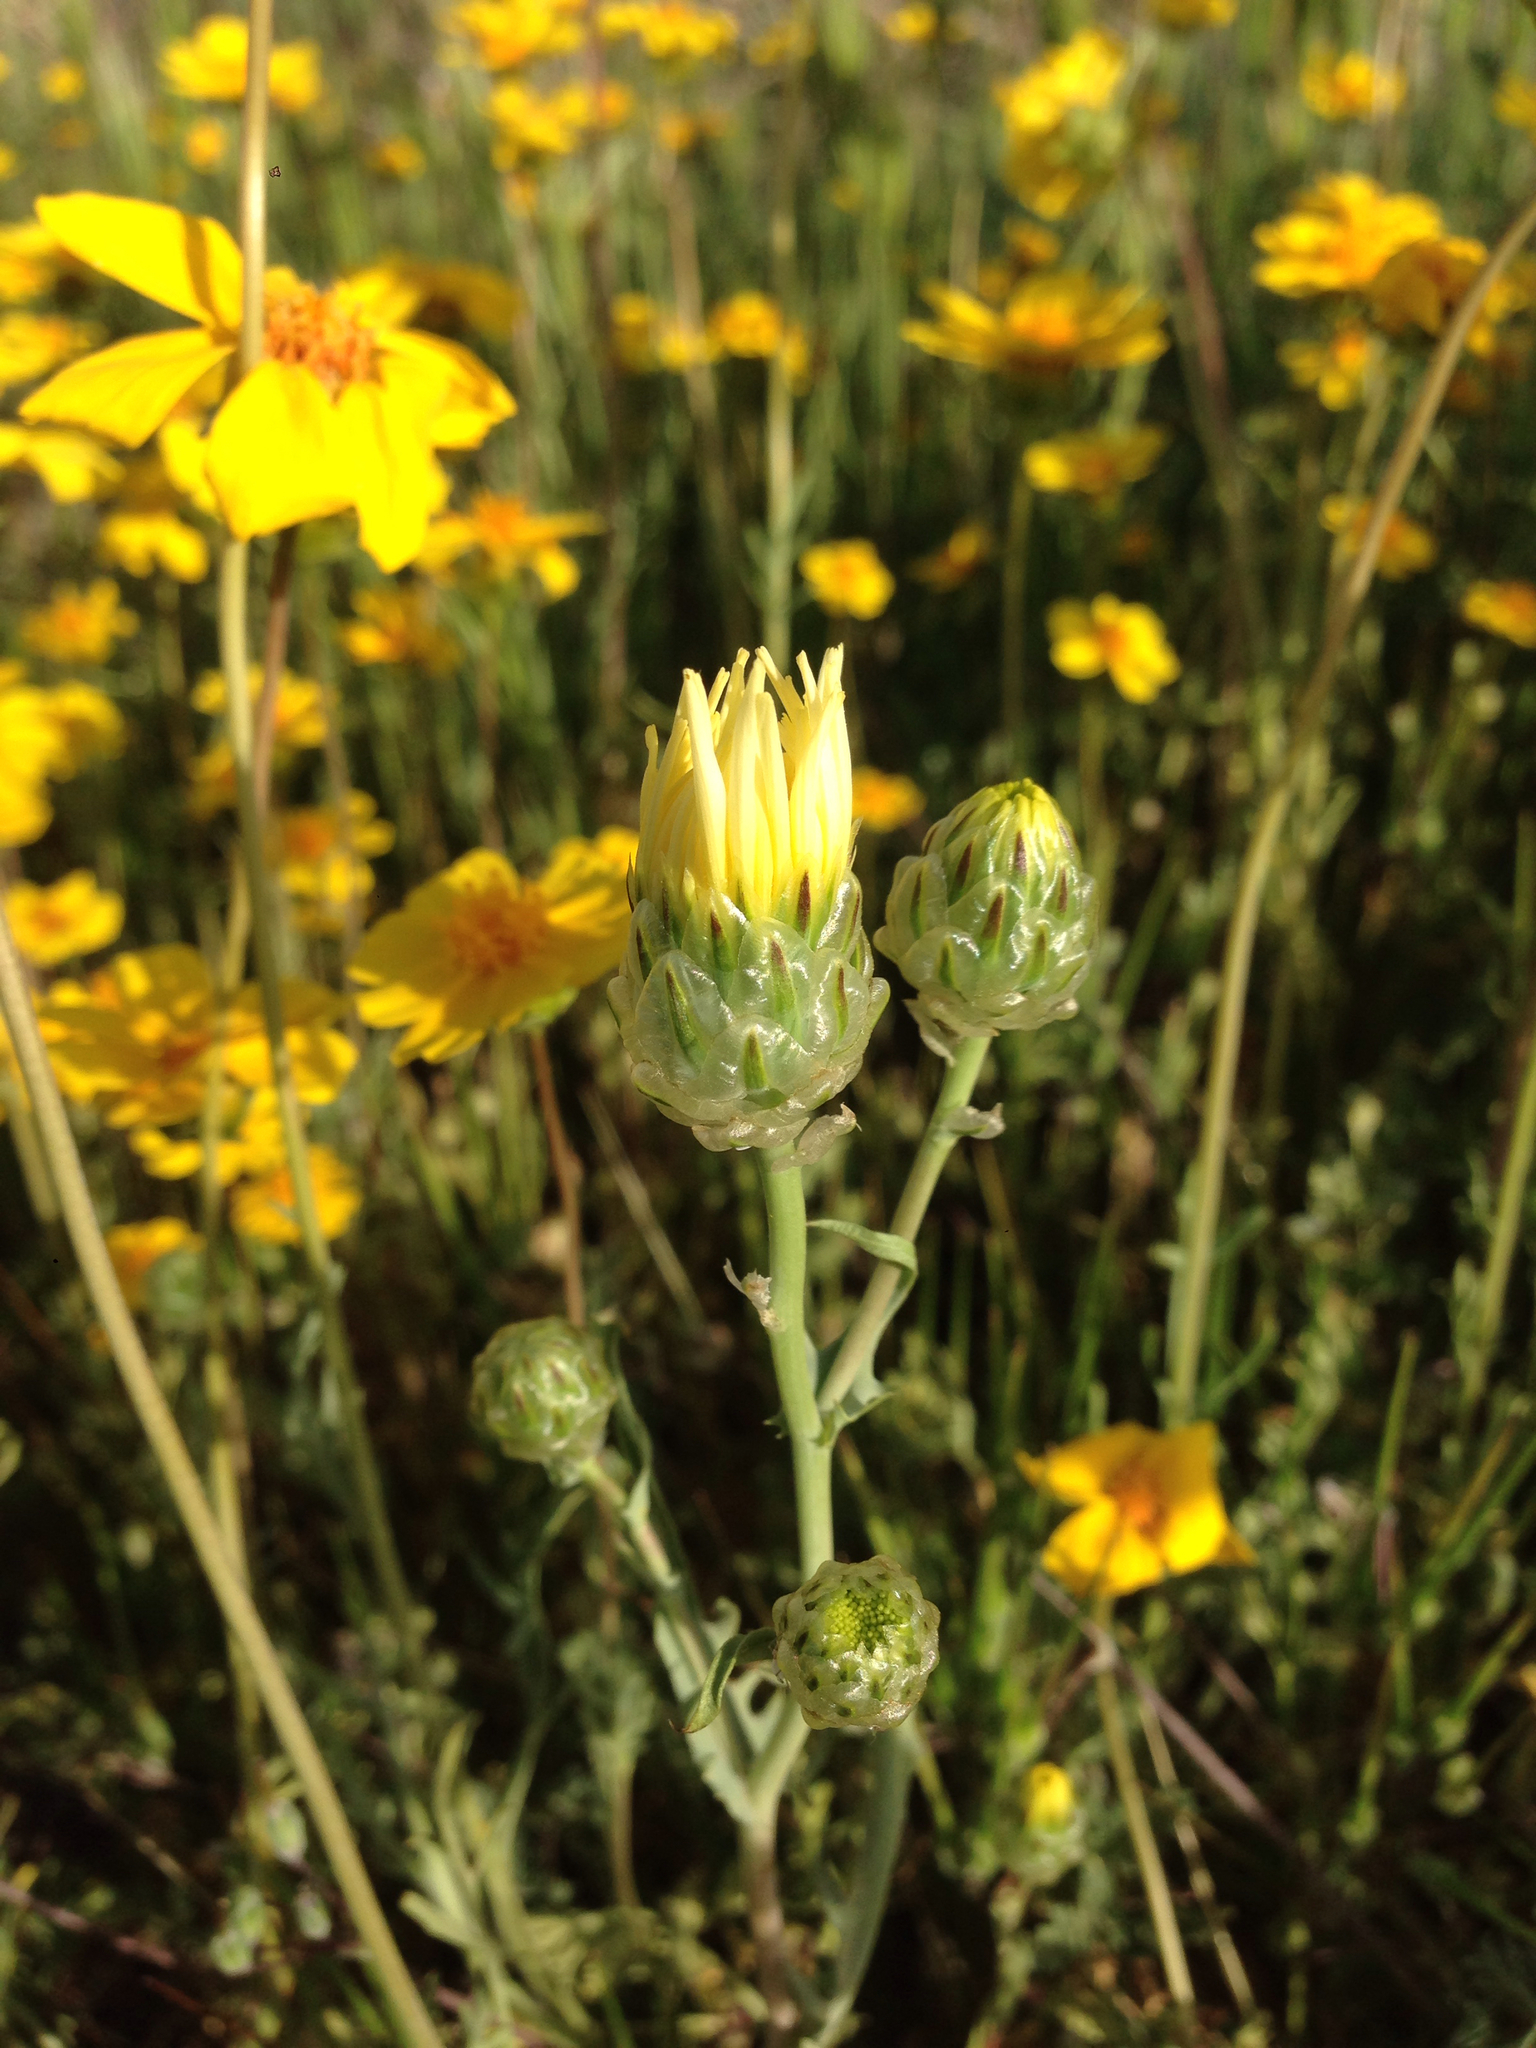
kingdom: Plantae
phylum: Tracheophyta
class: Magnoliopsida
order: Asterales
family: Asteraceae
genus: Malacothrix
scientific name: Malacothrix coulteri
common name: Snake's-head
